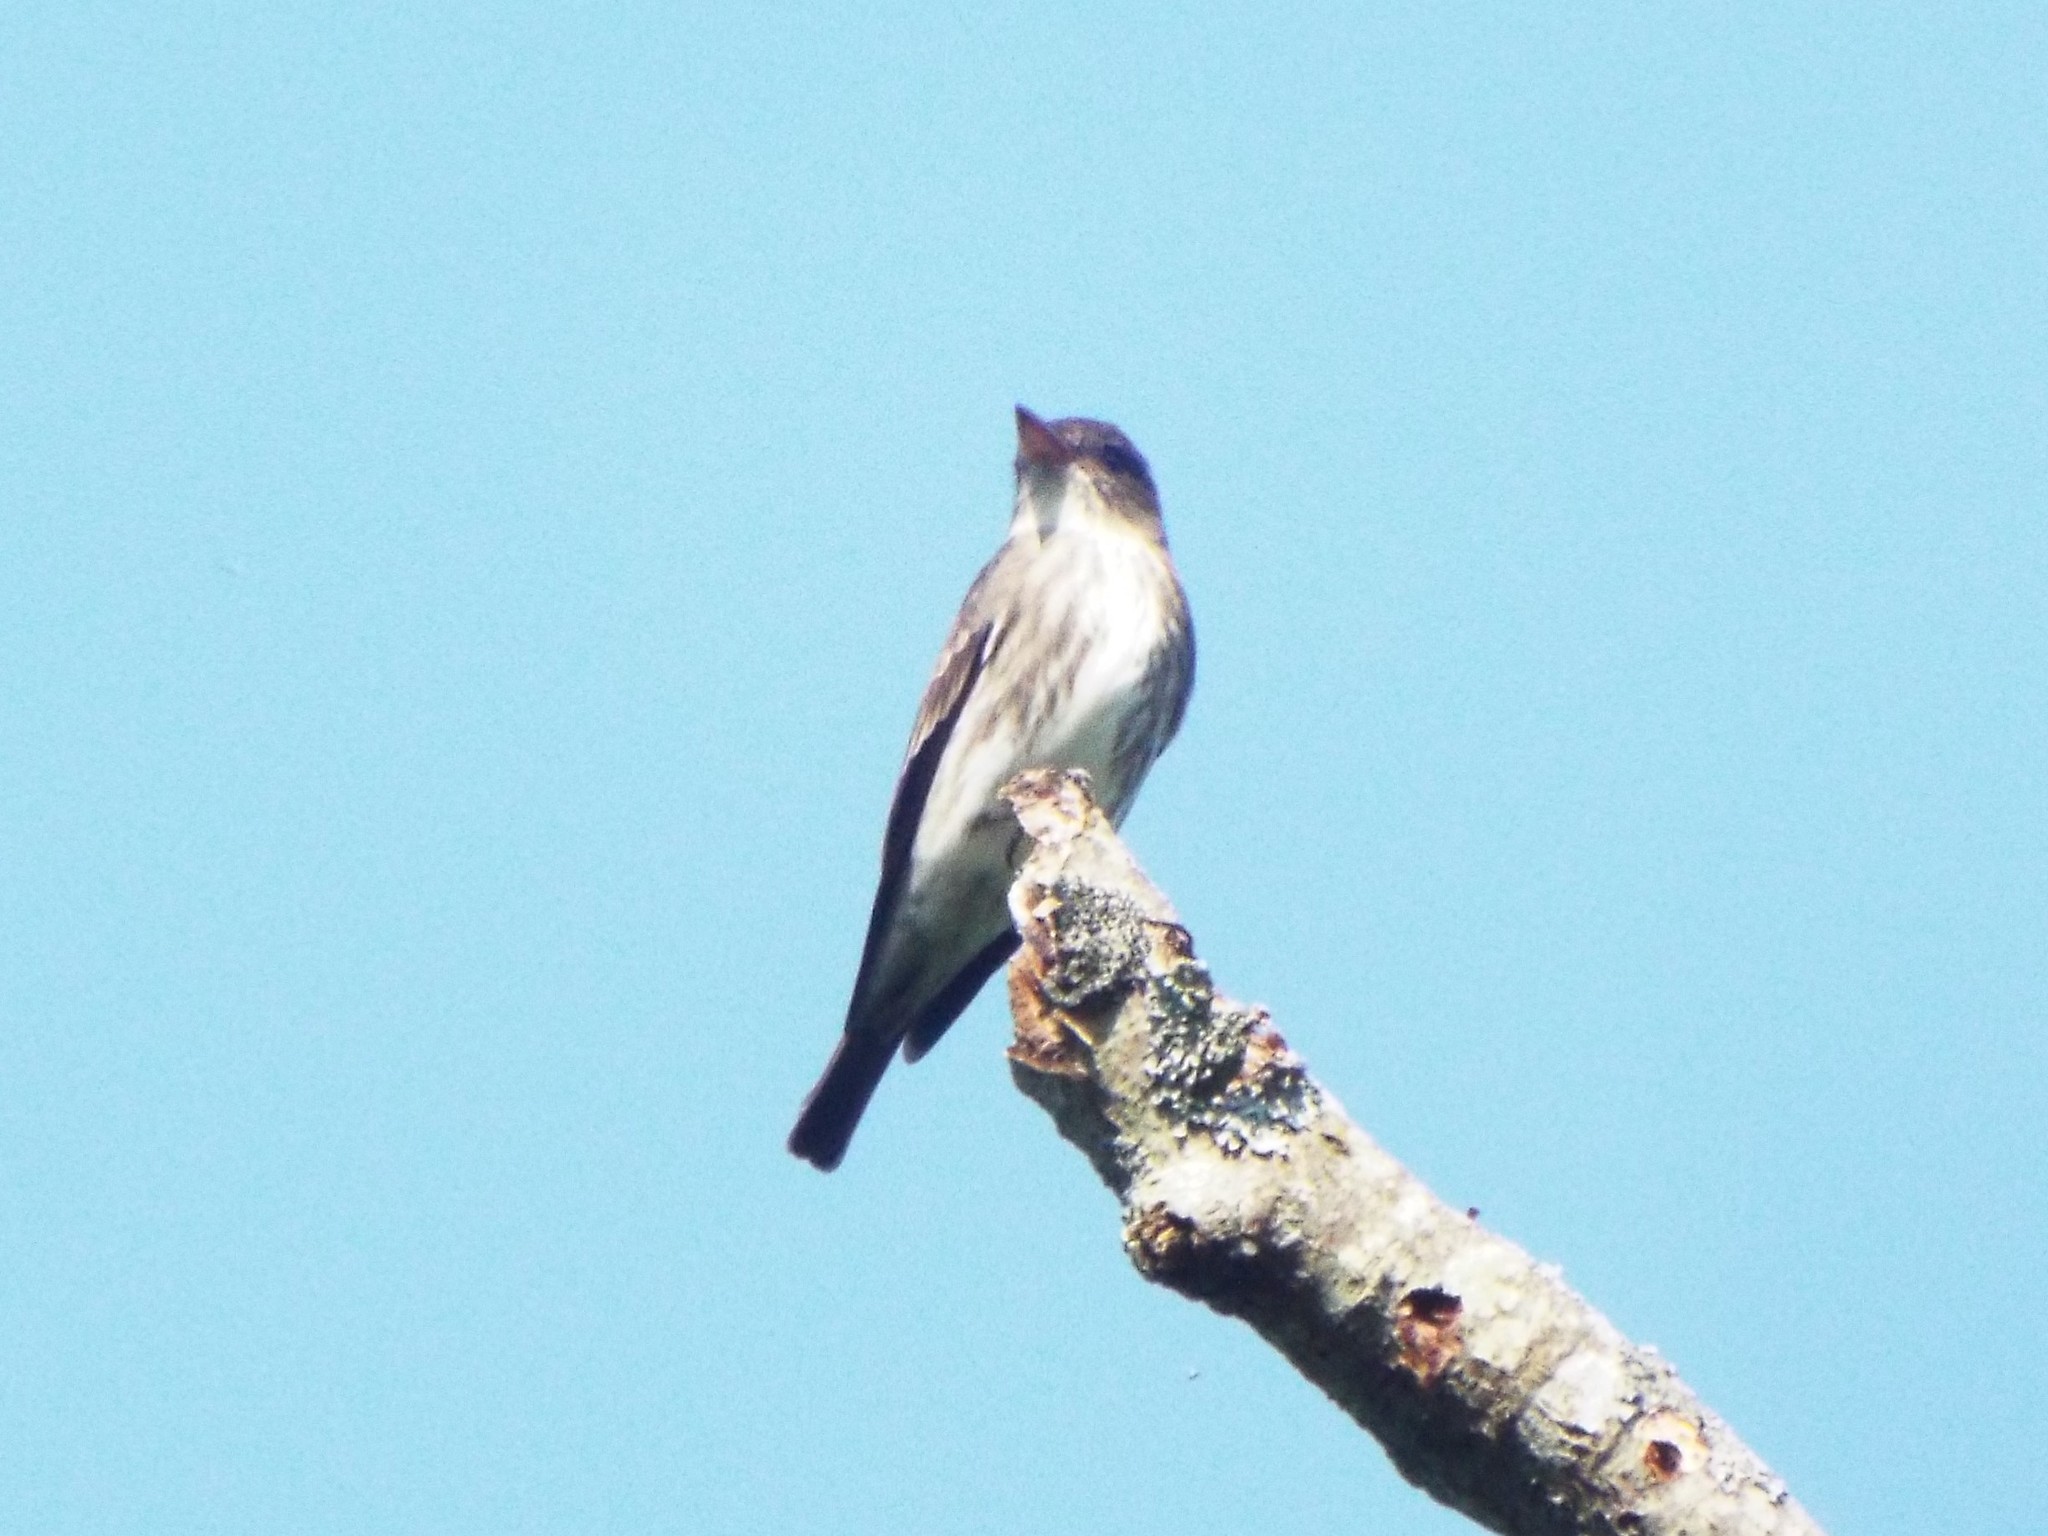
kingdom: Animalia
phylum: Chordata
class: Aves
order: Passeriformes
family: Tyrannidae
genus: Contopus
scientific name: Contopus cooperi
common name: Olive-sided flycatcher
